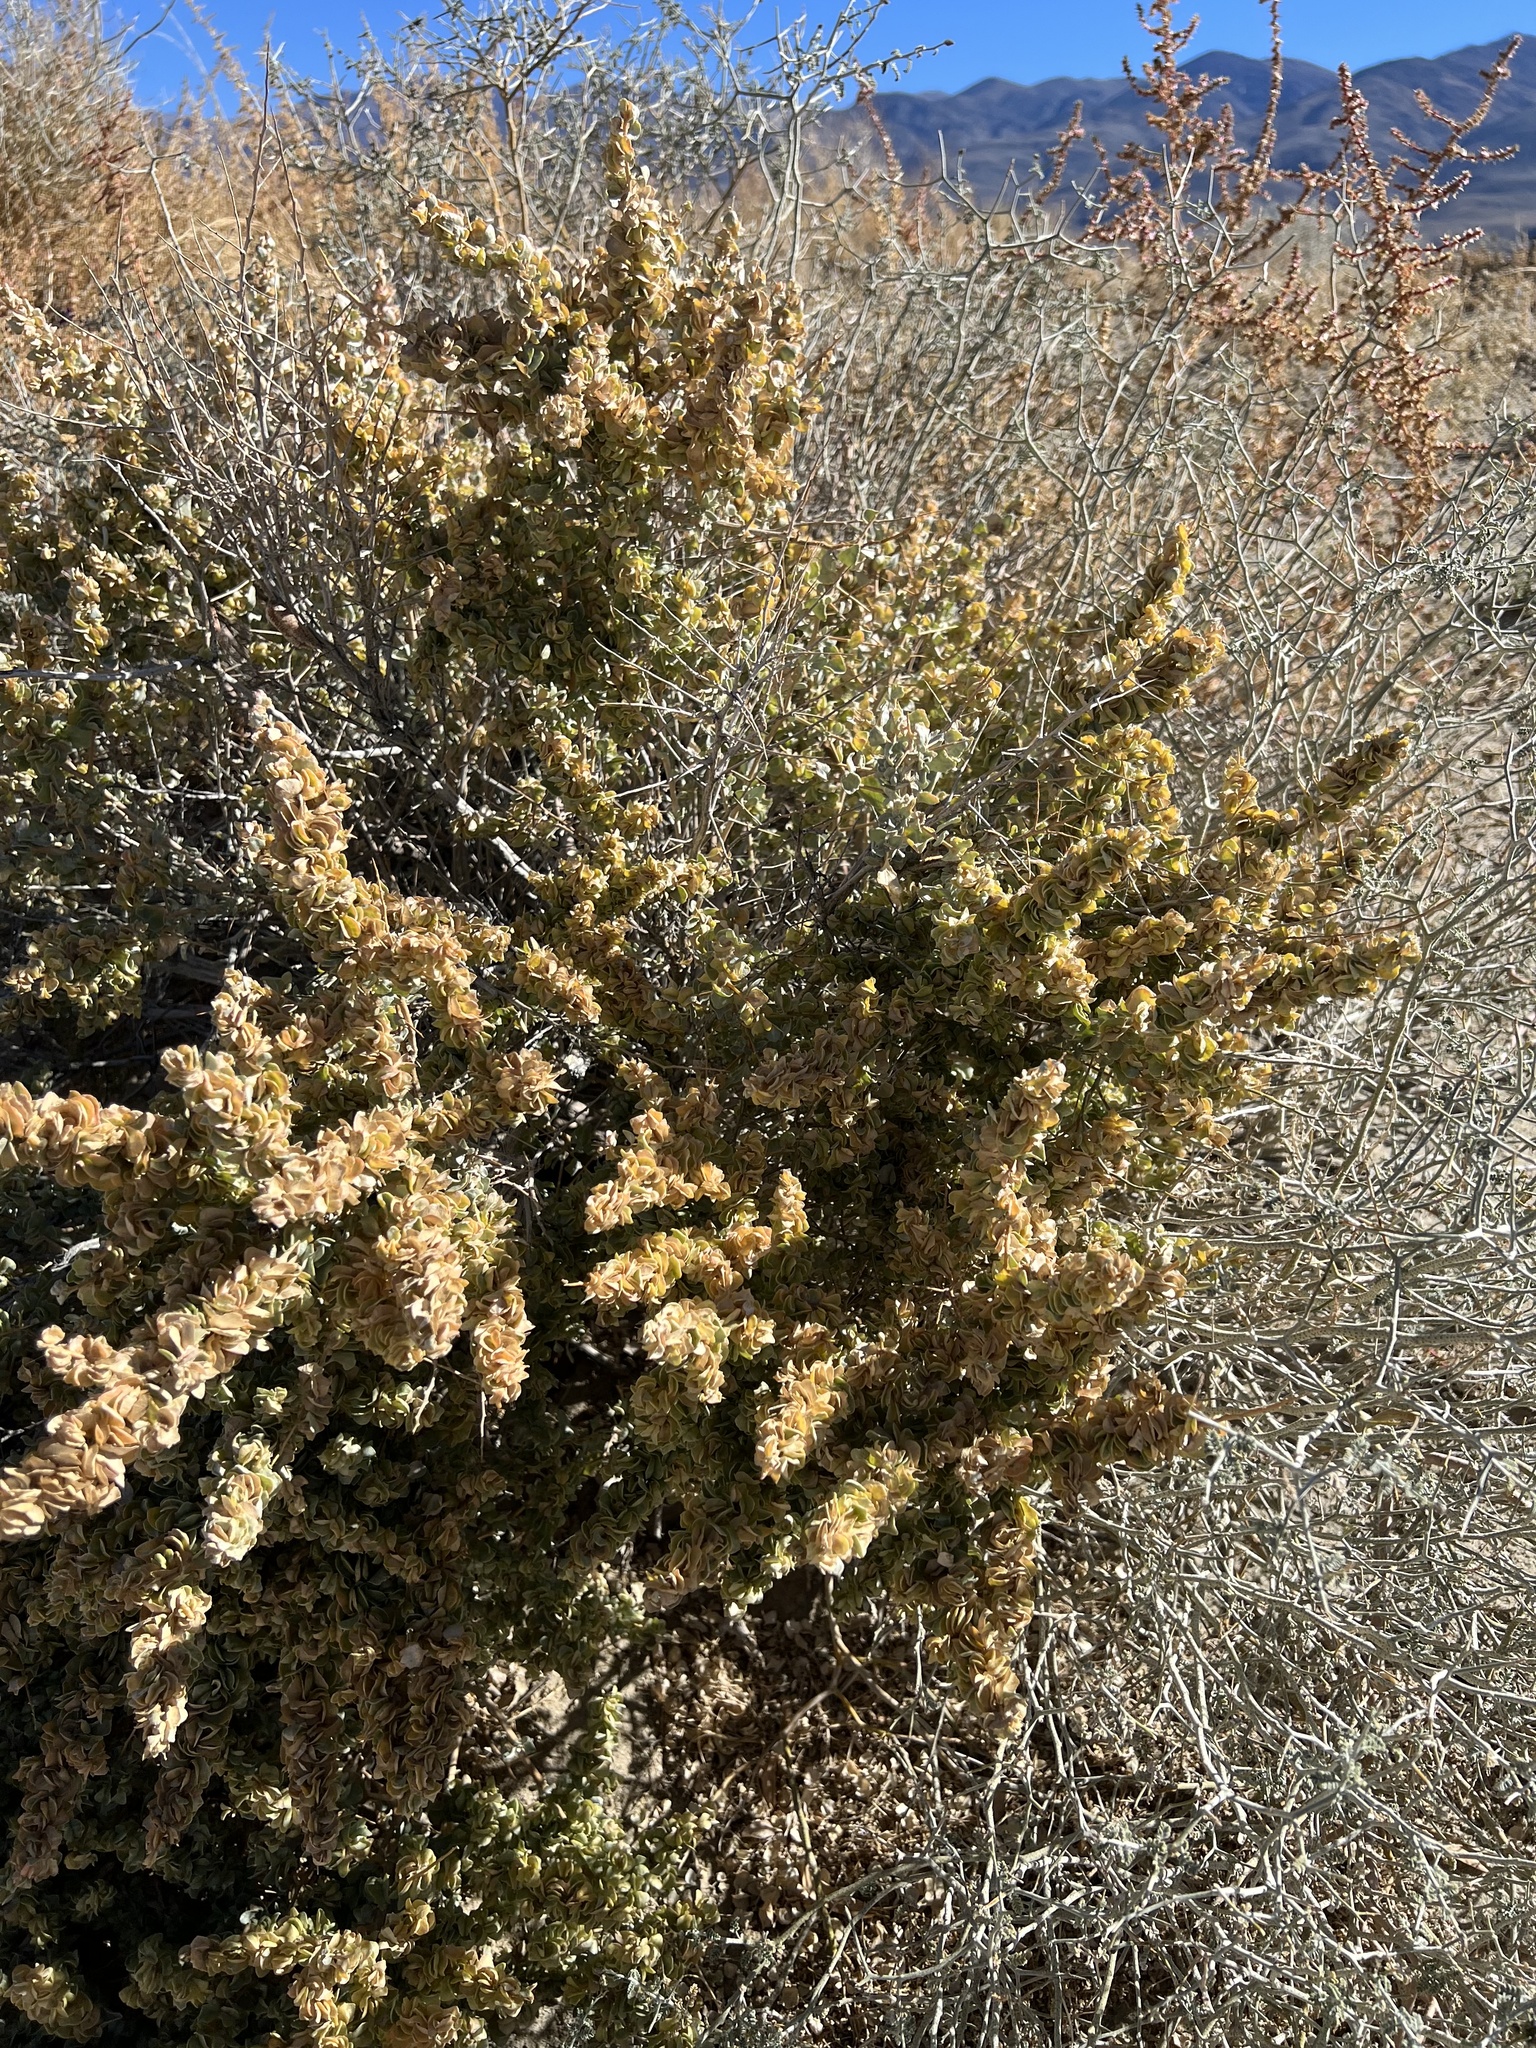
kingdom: Plantae
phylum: Tracheophyta
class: Magnoliopsida
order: Caryophyllales
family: Amaranthaceae
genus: Atriplex
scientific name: Atriplex confertifolia
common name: Shadscale
